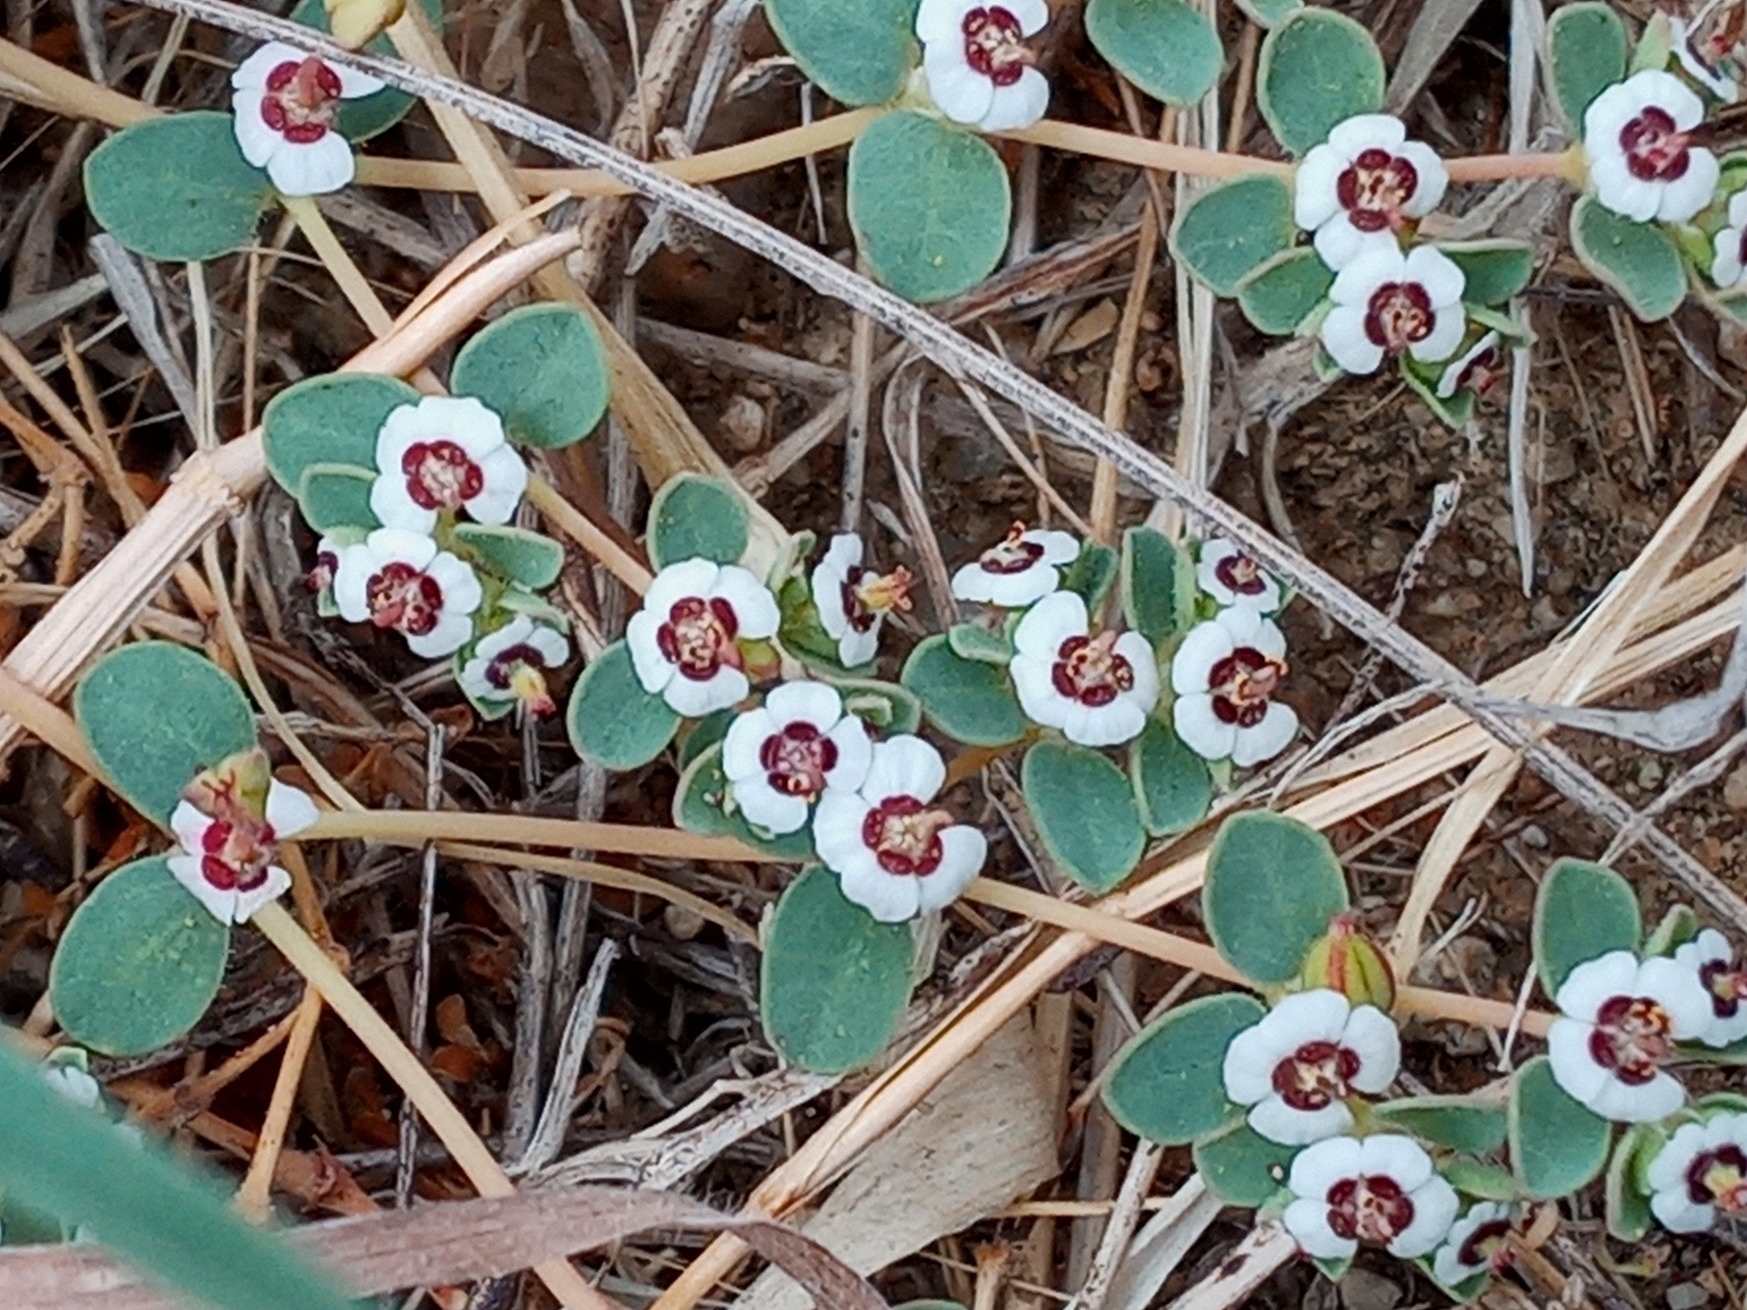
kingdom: Plantae
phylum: Tracheophyta
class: Magnoliopsida
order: Malpighiales
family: Euphorbiaceae
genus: Euphorbia
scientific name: Euphorbia polycarpa
